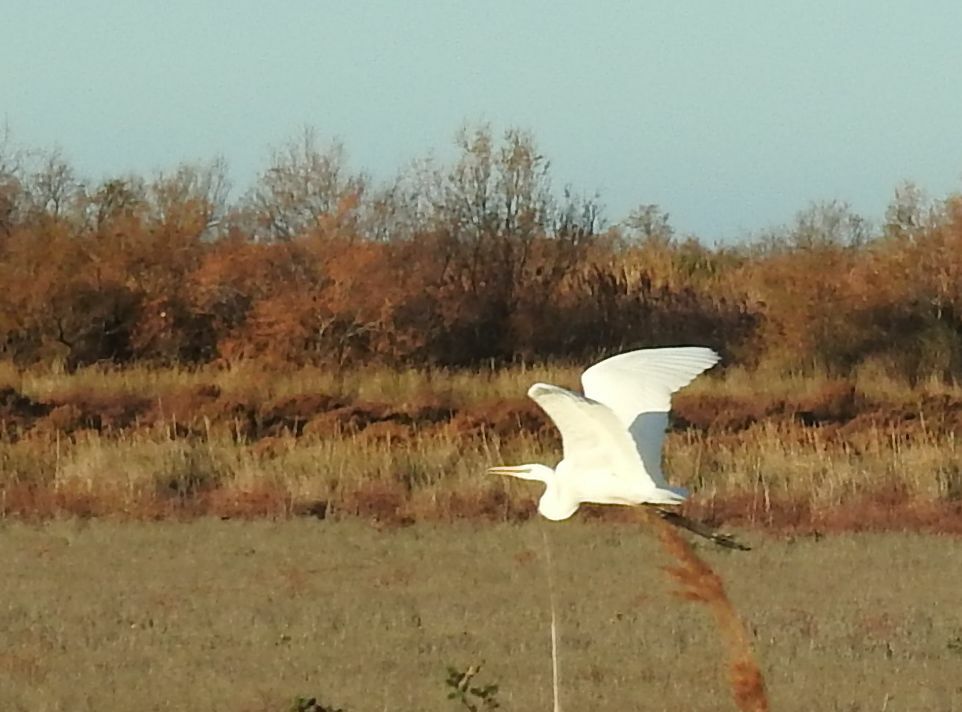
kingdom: Animalia
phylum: Chordata
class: Aves
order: Pelecaniformes
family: Ardeidae
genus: Ardea
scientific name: Ardea alba
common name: Great egret
